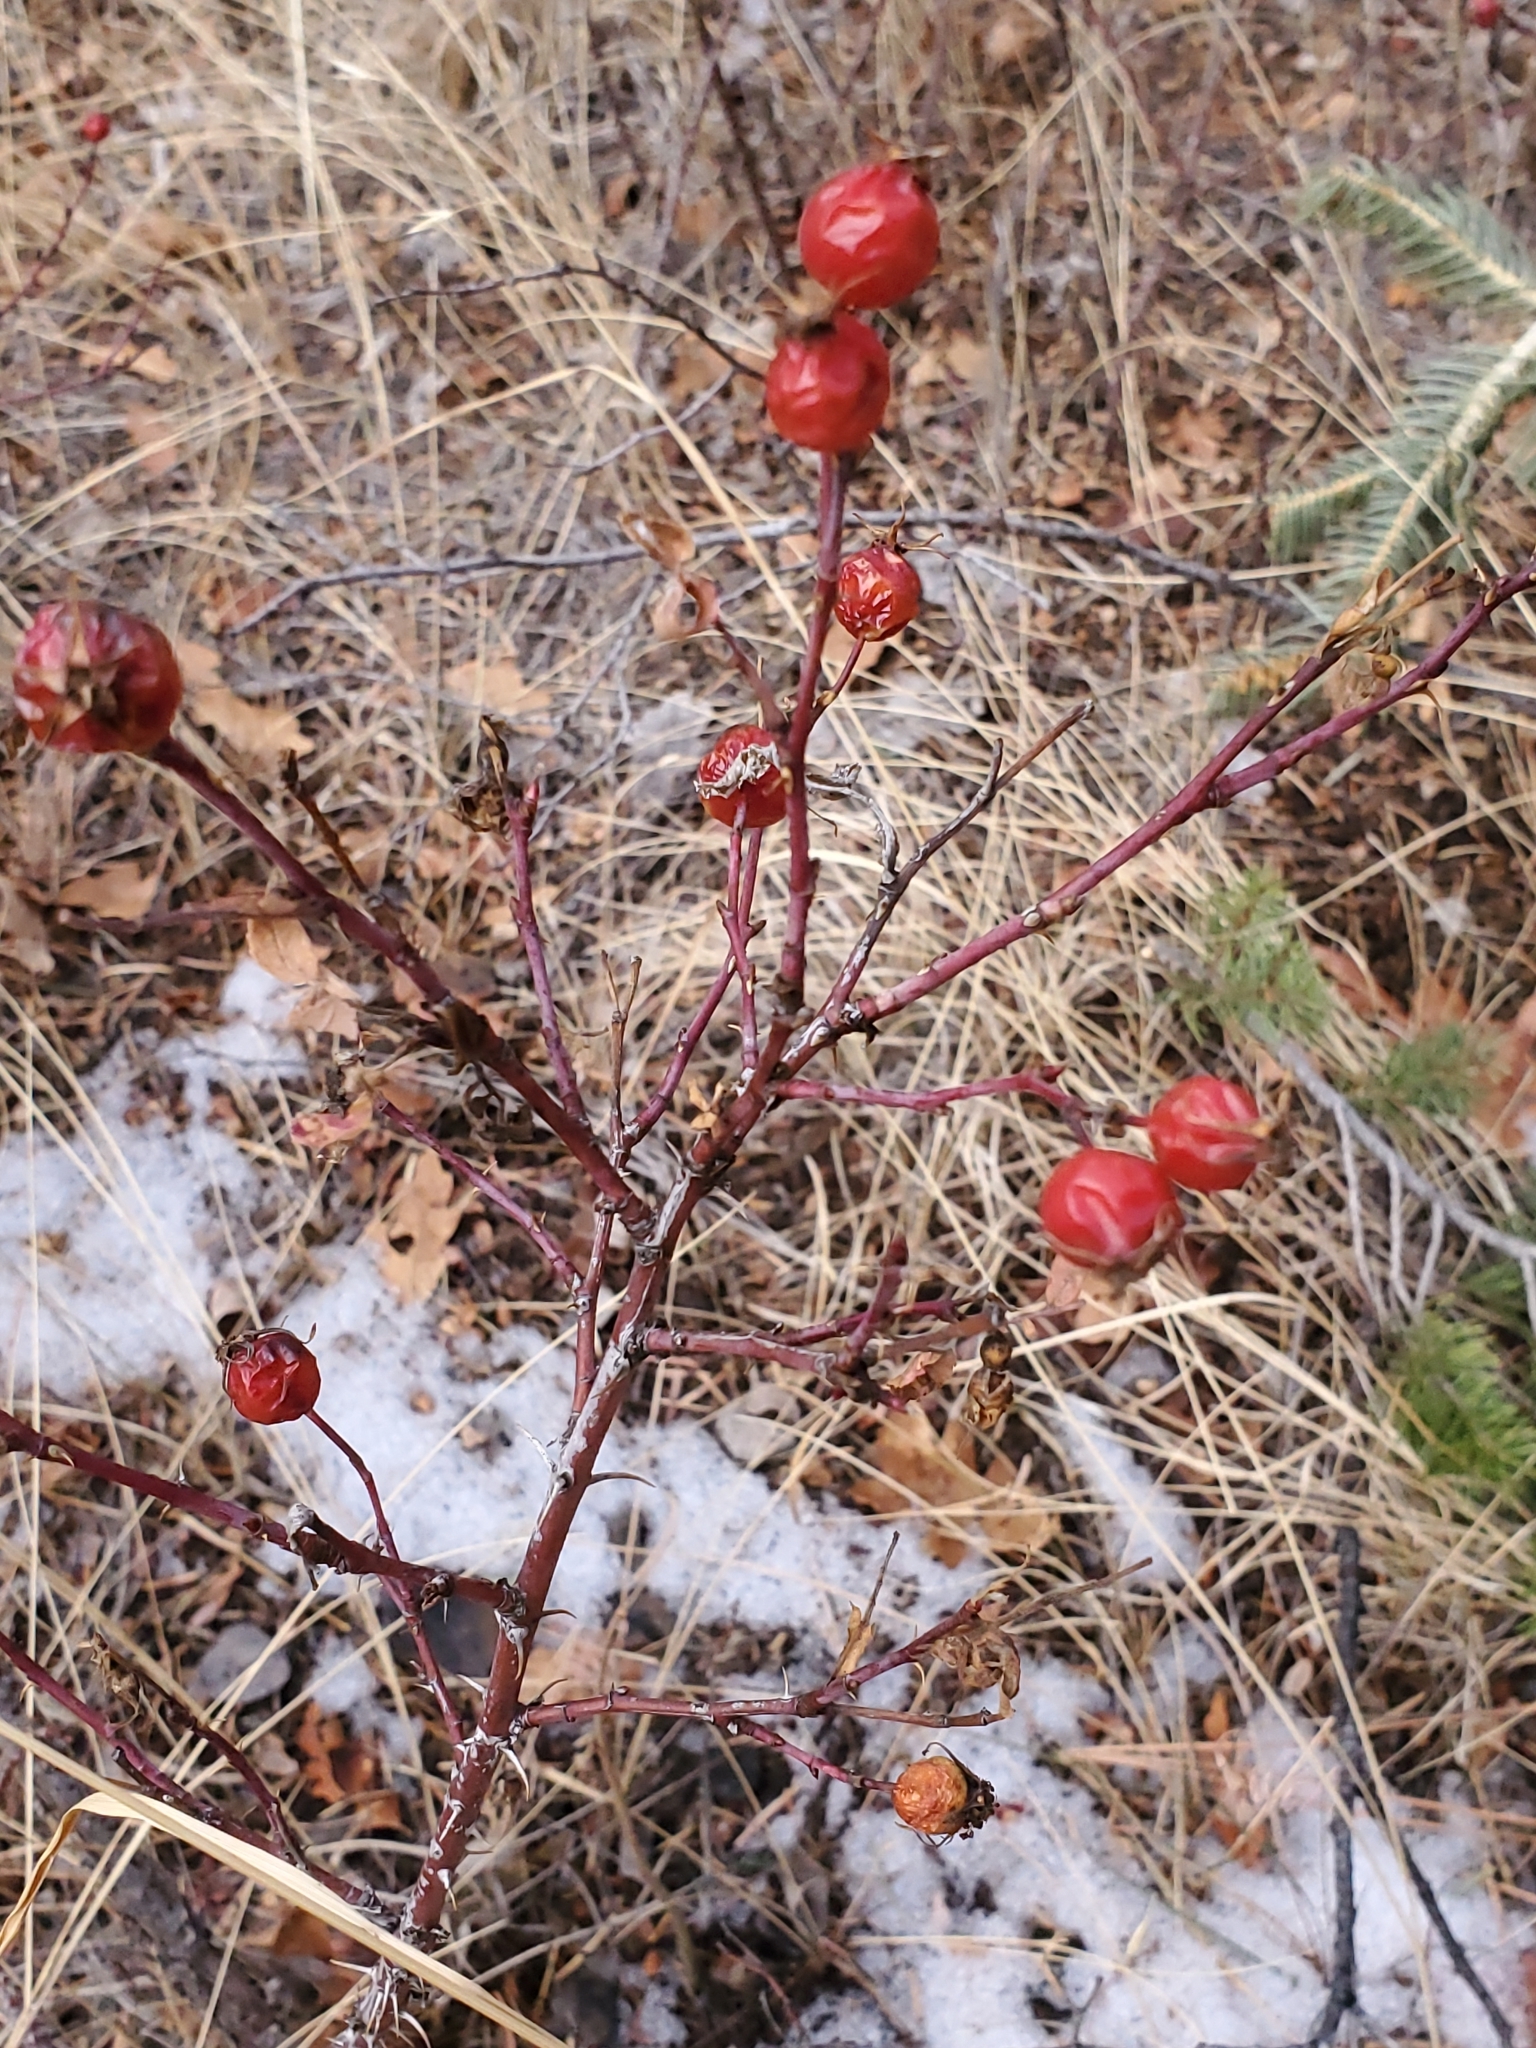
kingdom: Plantae
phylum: Tracheophyta
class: Magnoliopsida
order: Rosales
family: Rosaceae
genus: Rosa
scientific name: Rosa woodsii
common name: Woods's rose
